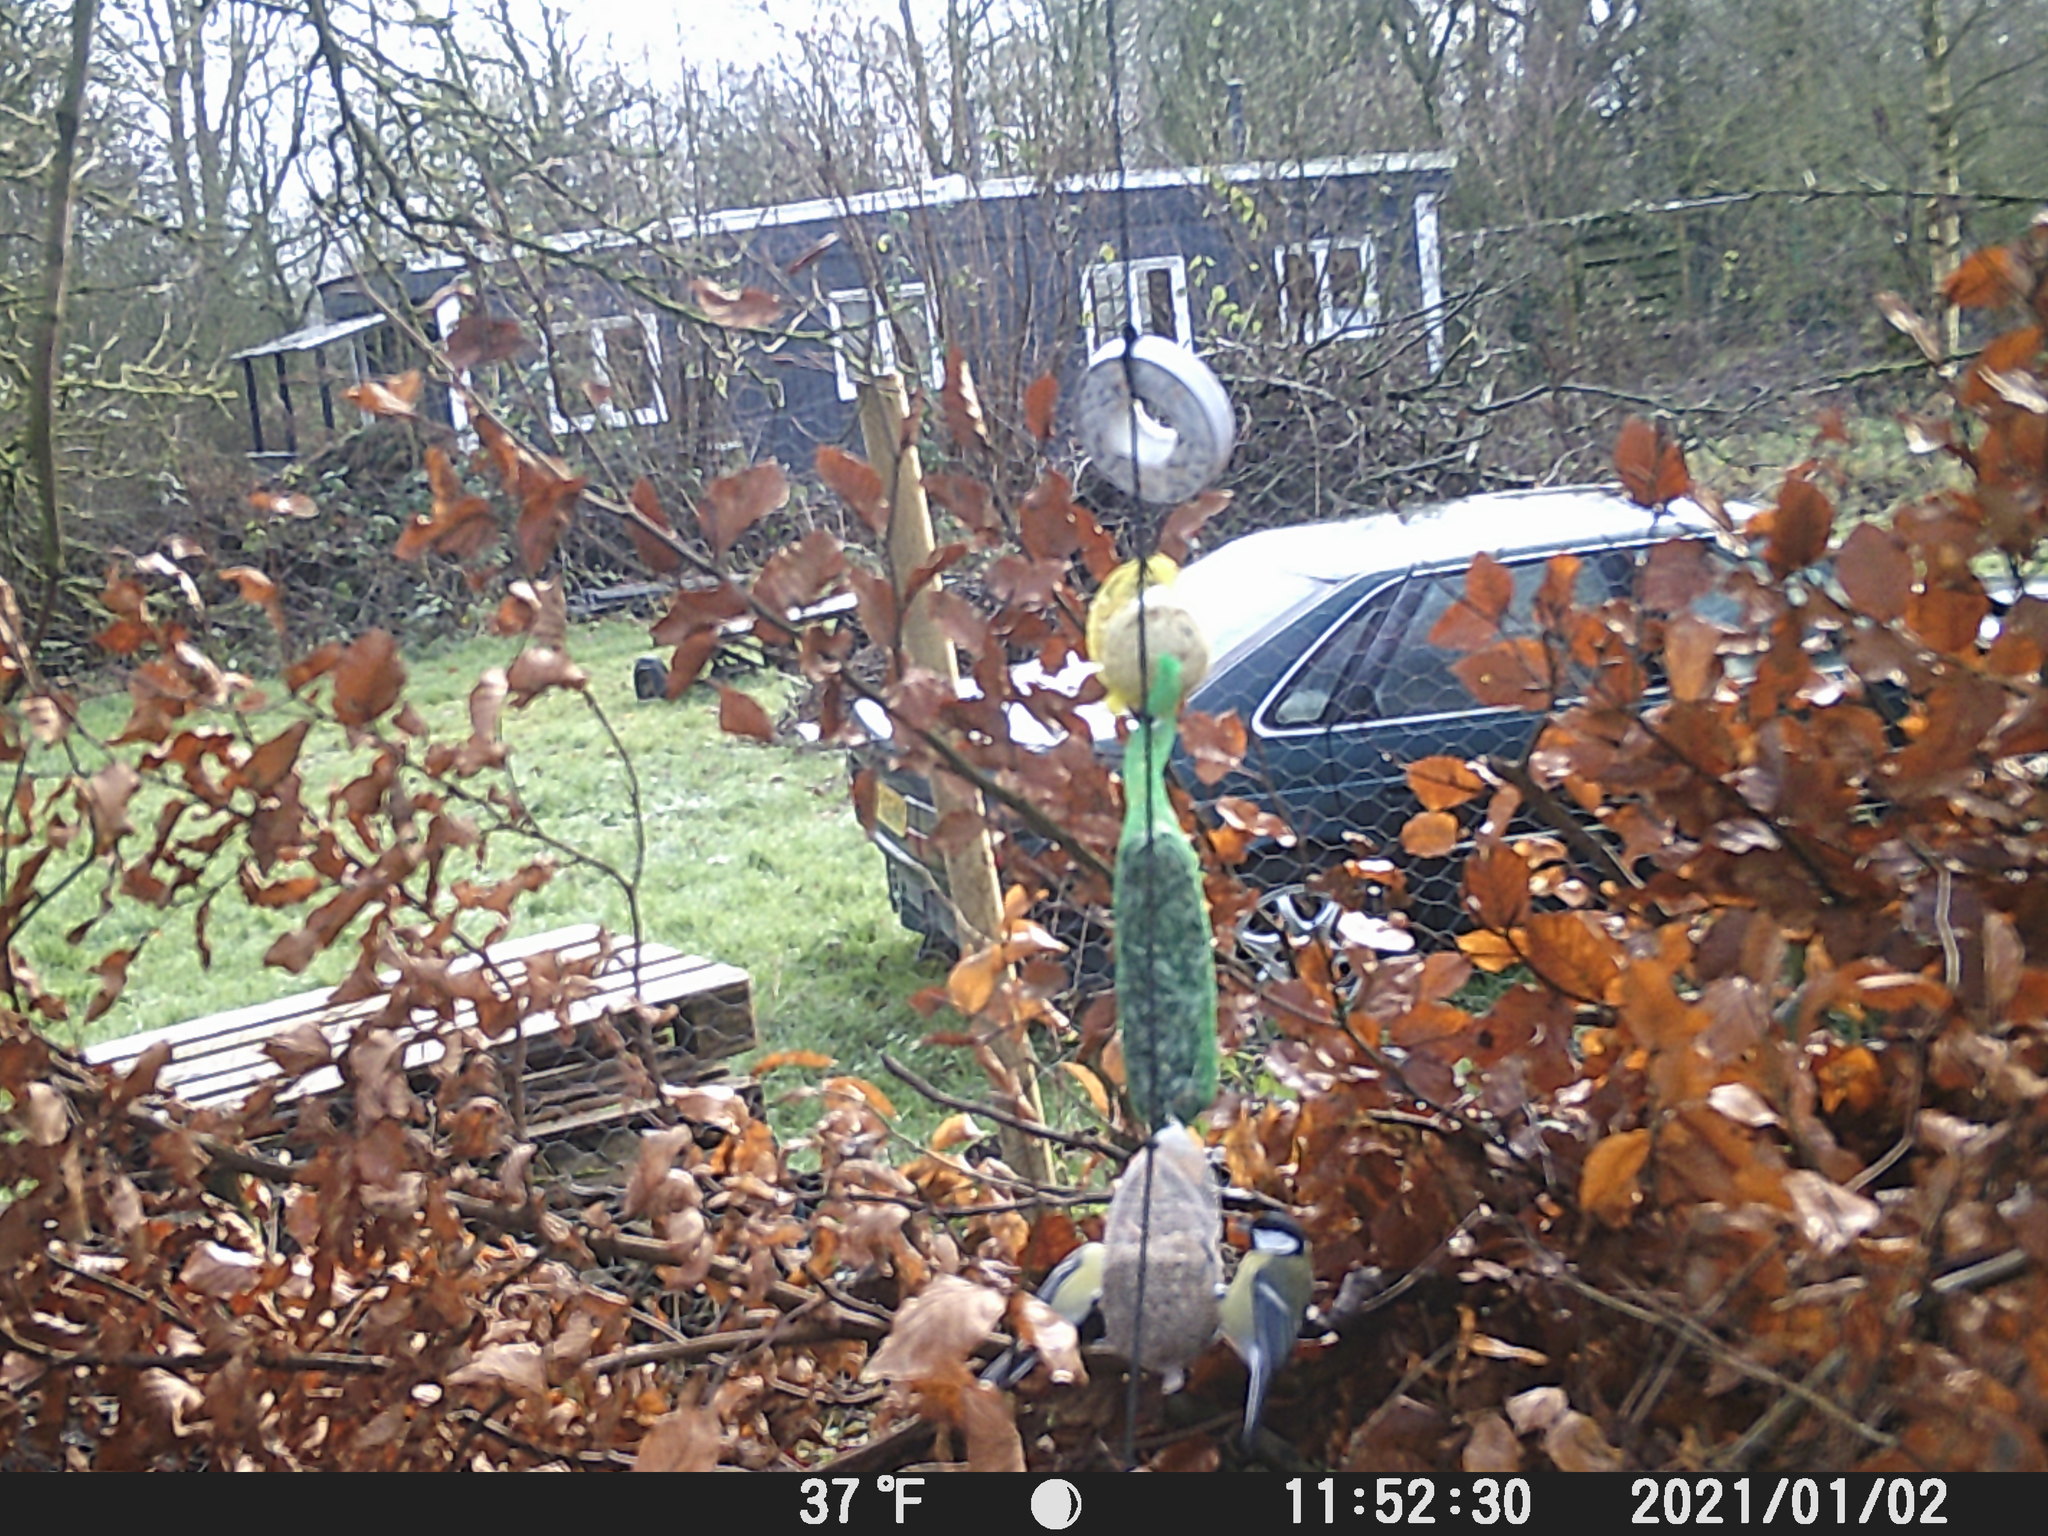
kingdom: Animalia
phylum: Chordata
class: Aves
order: Passeriformes
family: Paridae
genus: Parus
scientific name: Parus major
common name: Great tit
